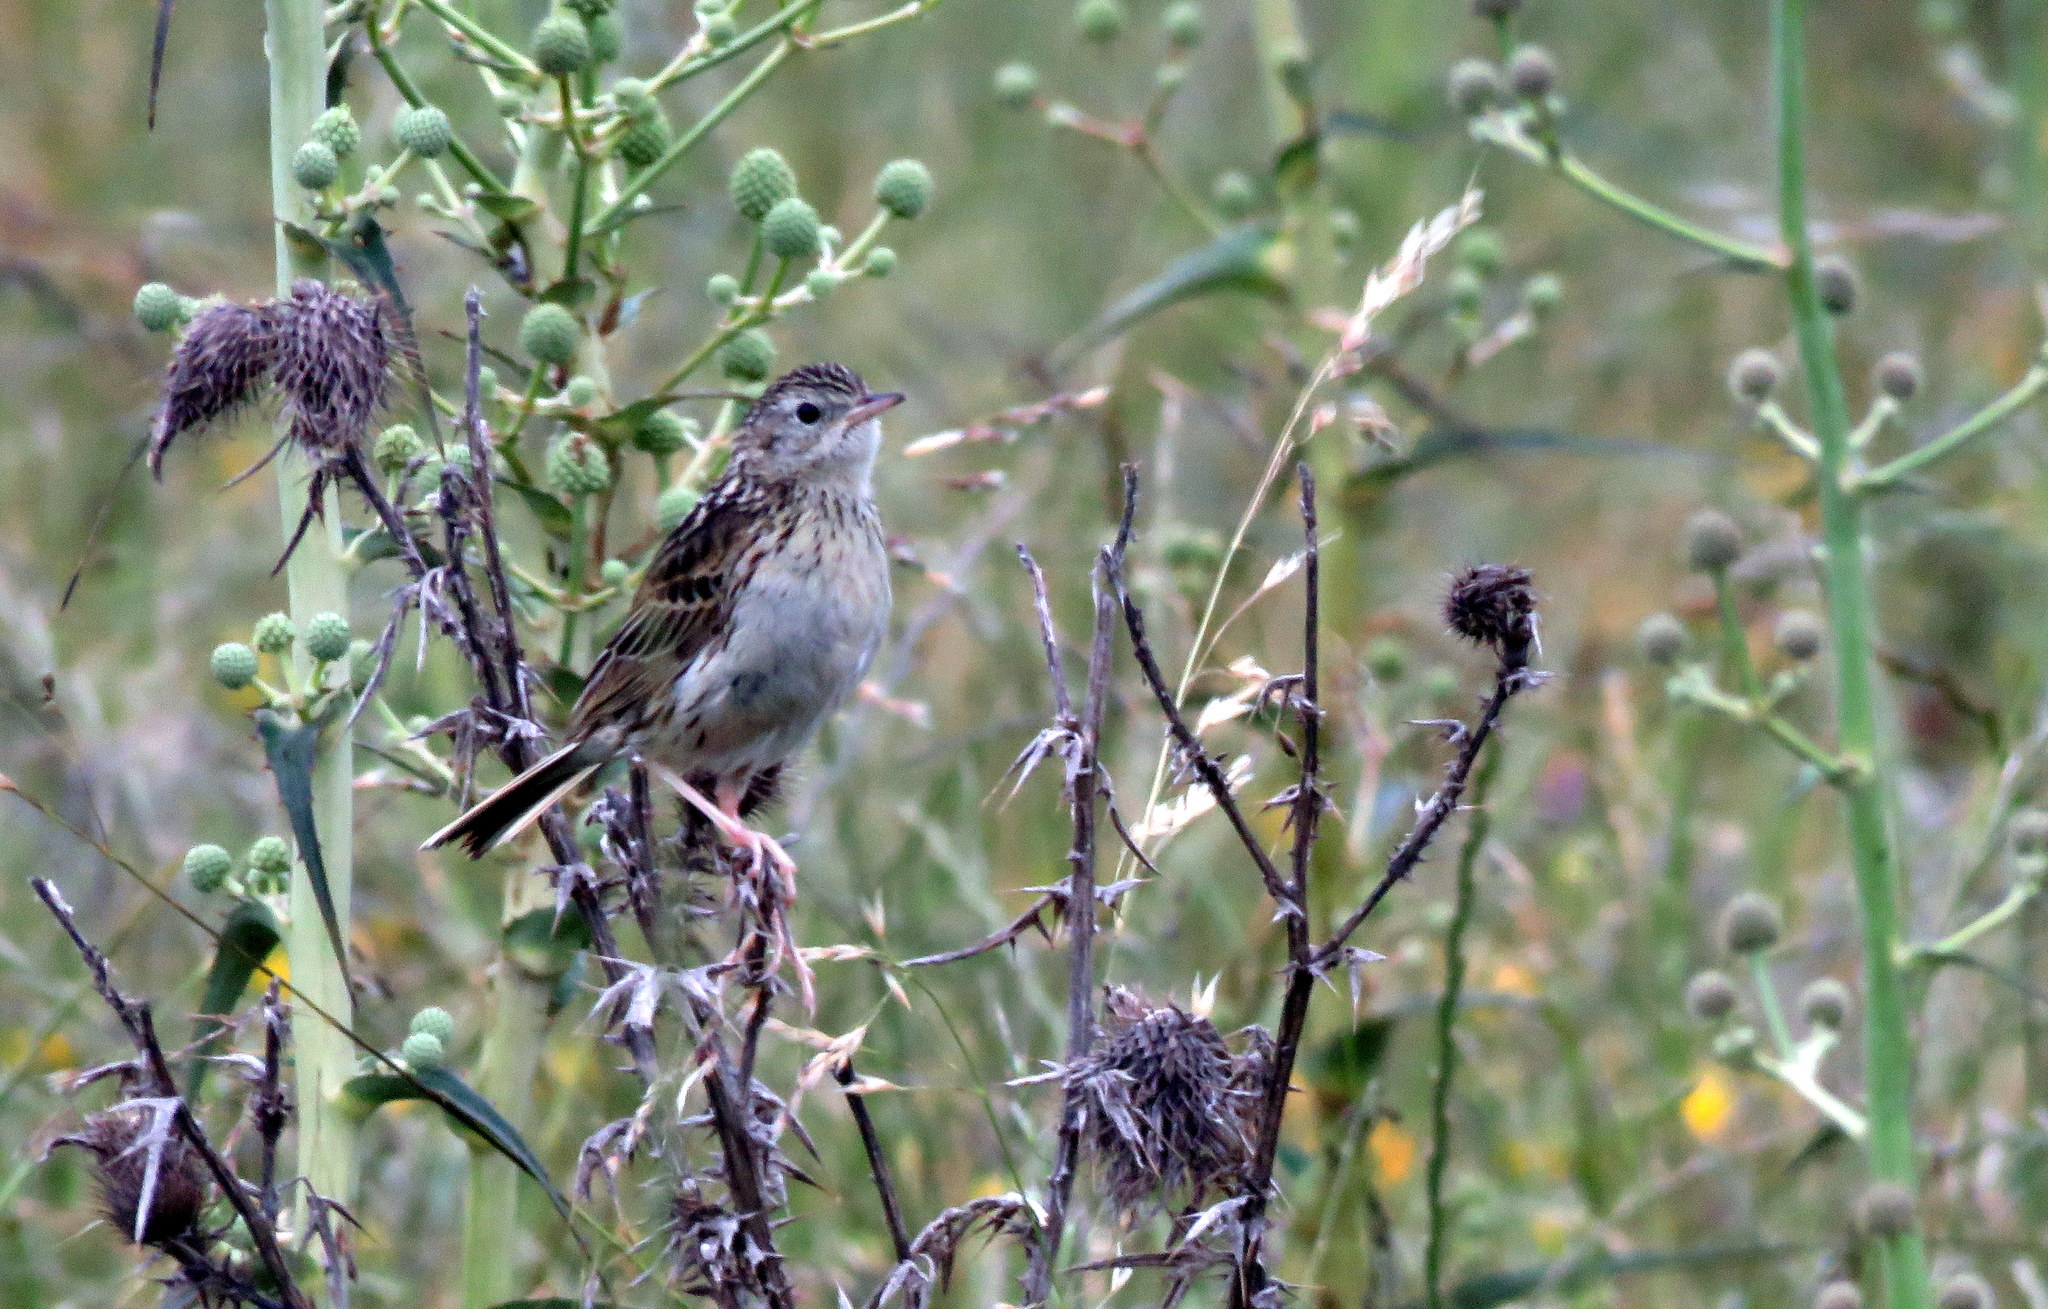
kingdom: Animalia
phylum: Chordata
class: Aves
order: Passeriformes
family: Motacillidae
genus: Anthus
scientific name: Anthus hellmayri
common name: Hellmayr's pipit
